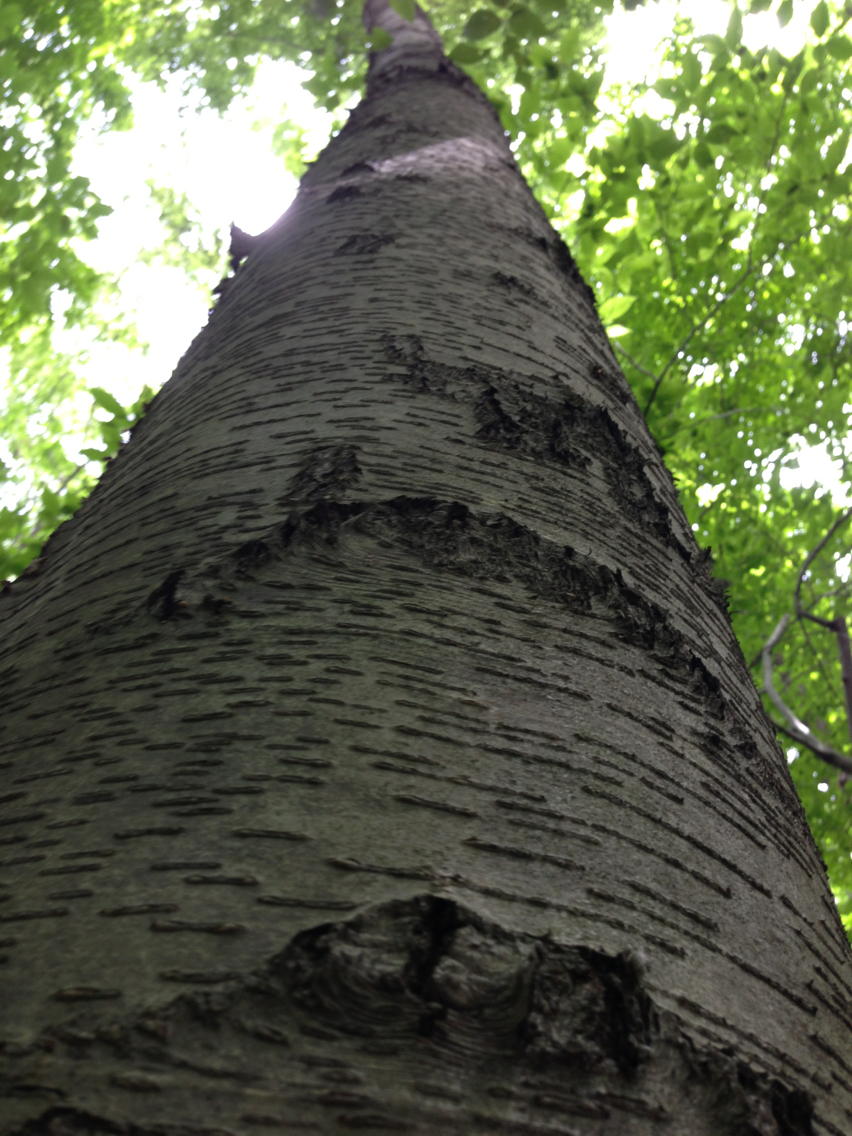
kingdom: Plantae
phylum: Tracheophyta
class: Magnoliopsida
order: Fagales
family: Betulaceae
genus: Betula
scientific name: Betula lenta
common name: Black birch
